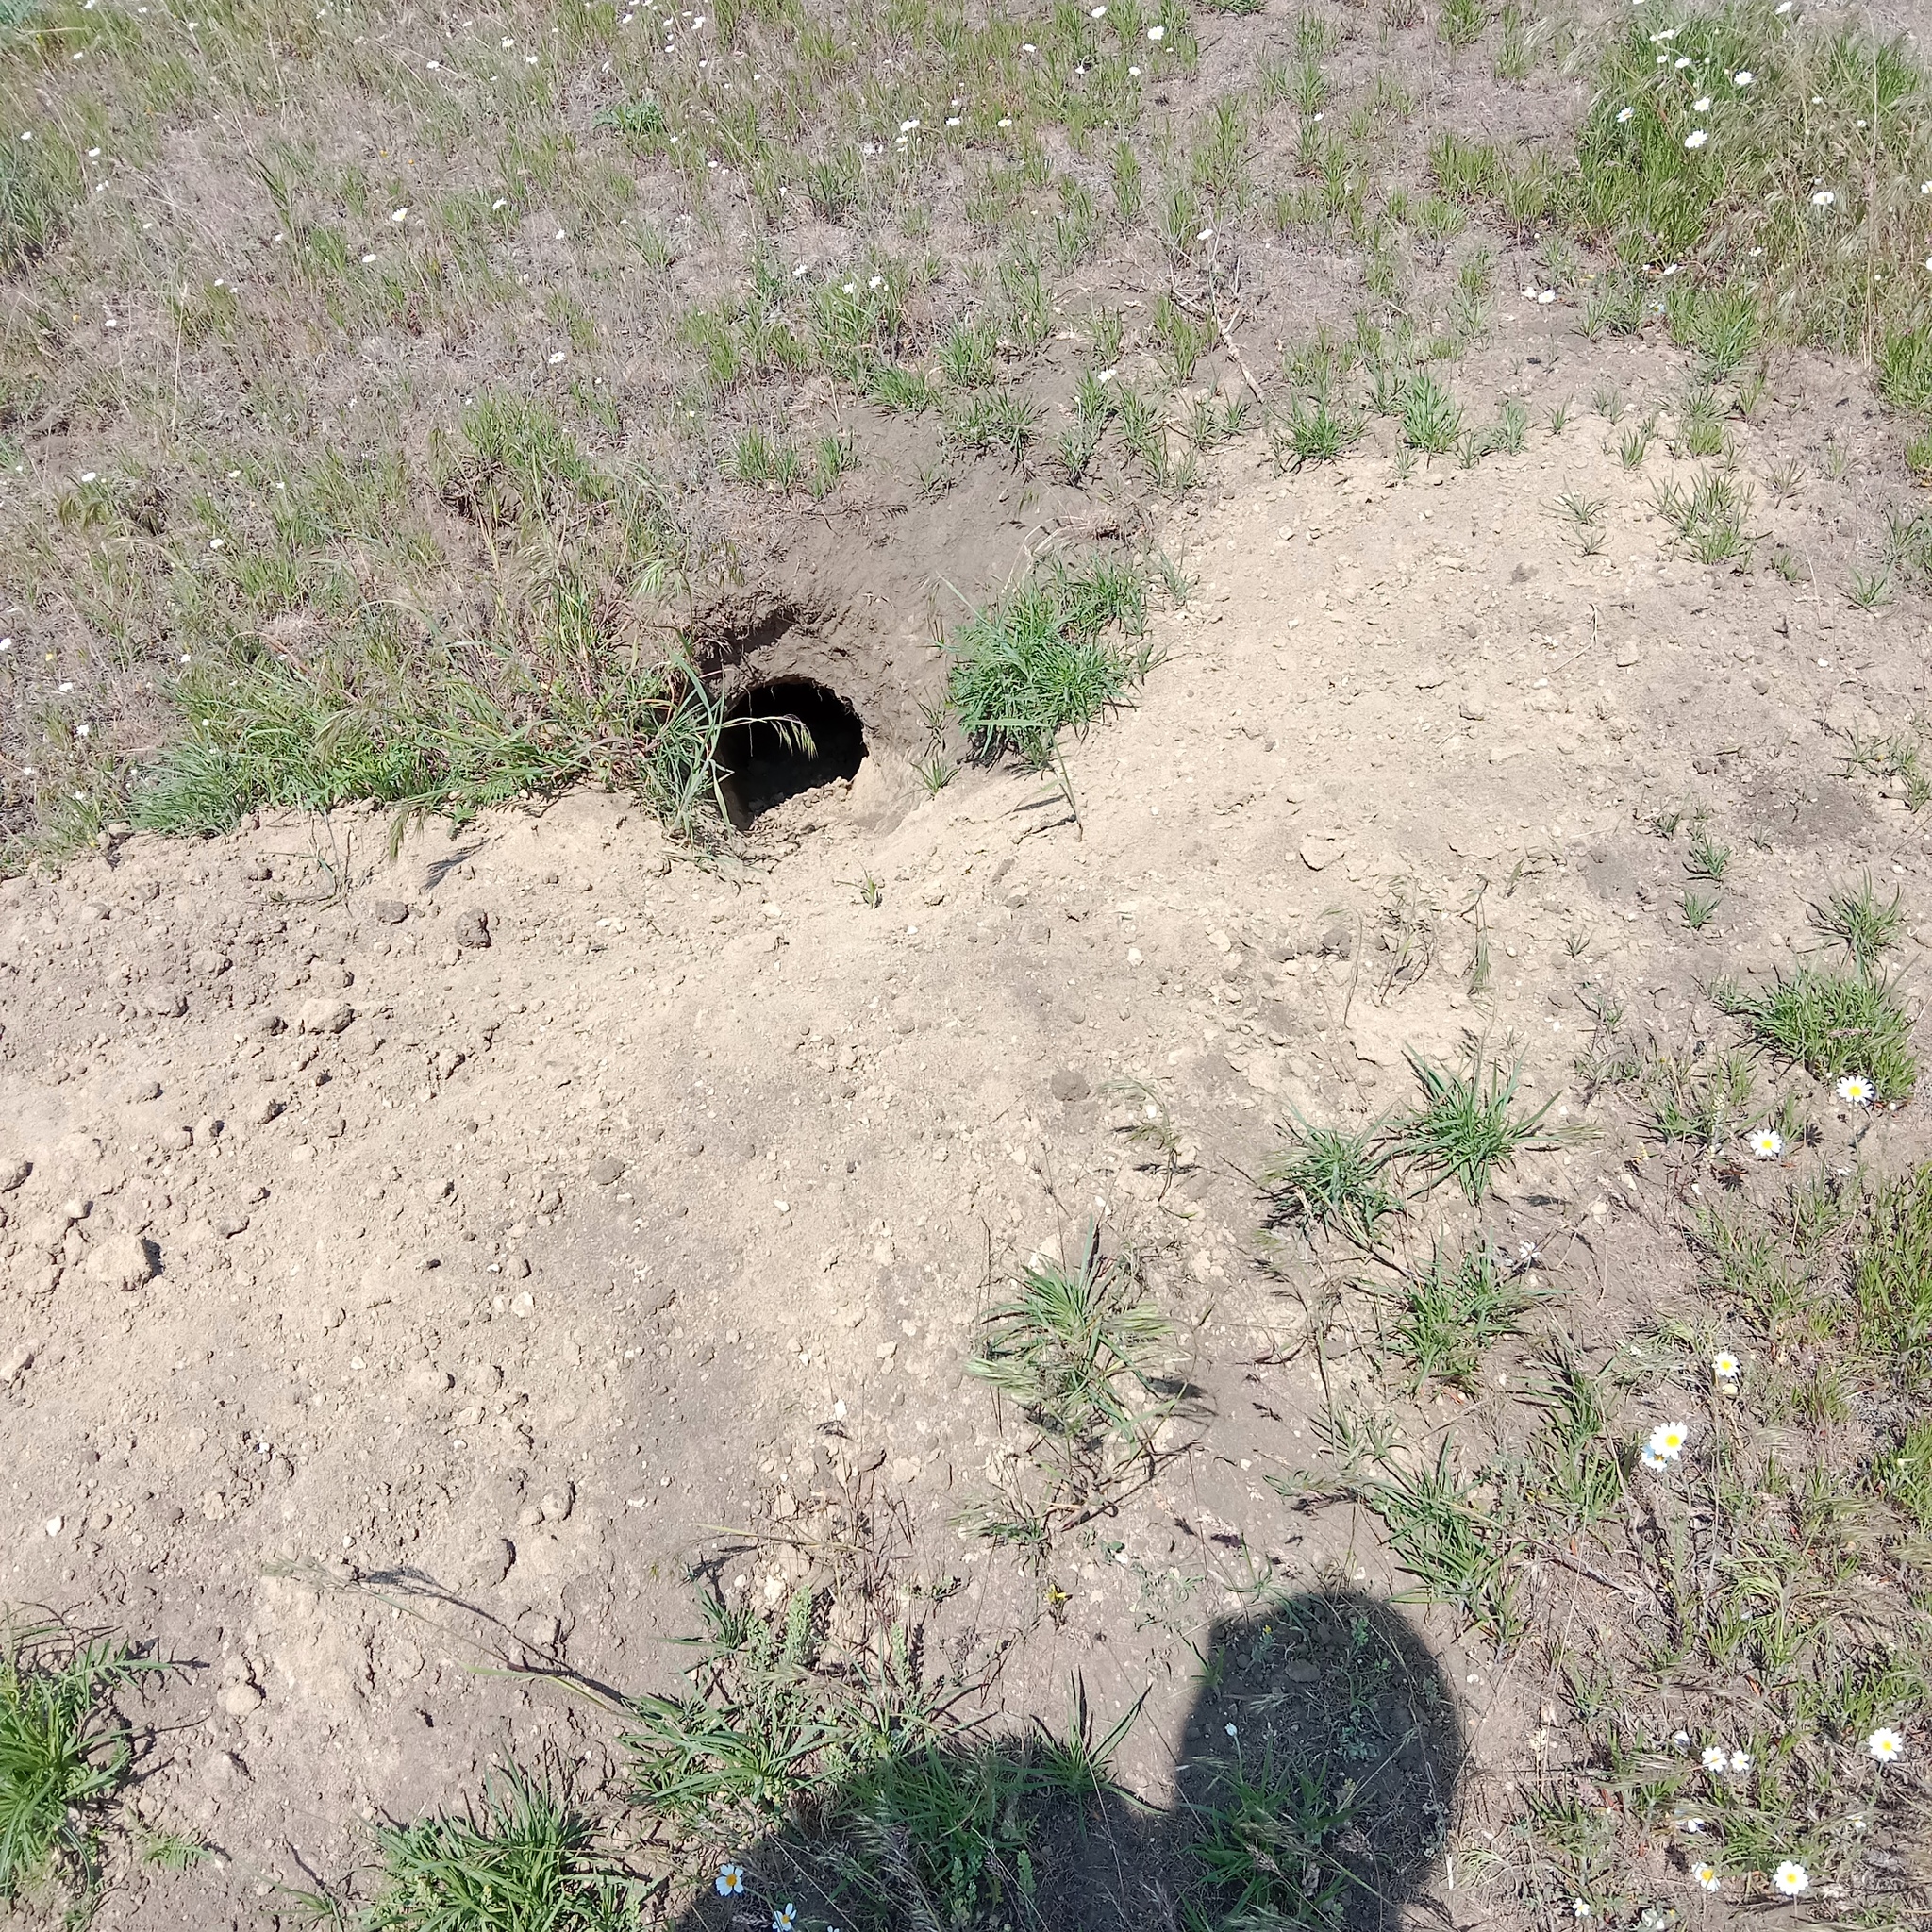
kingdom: Animalia
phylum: Chordata
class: Mammalia
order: Rodentia
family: Sciuridae
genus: Marmota
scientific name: Marmota bobak
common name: Bobak marmot
